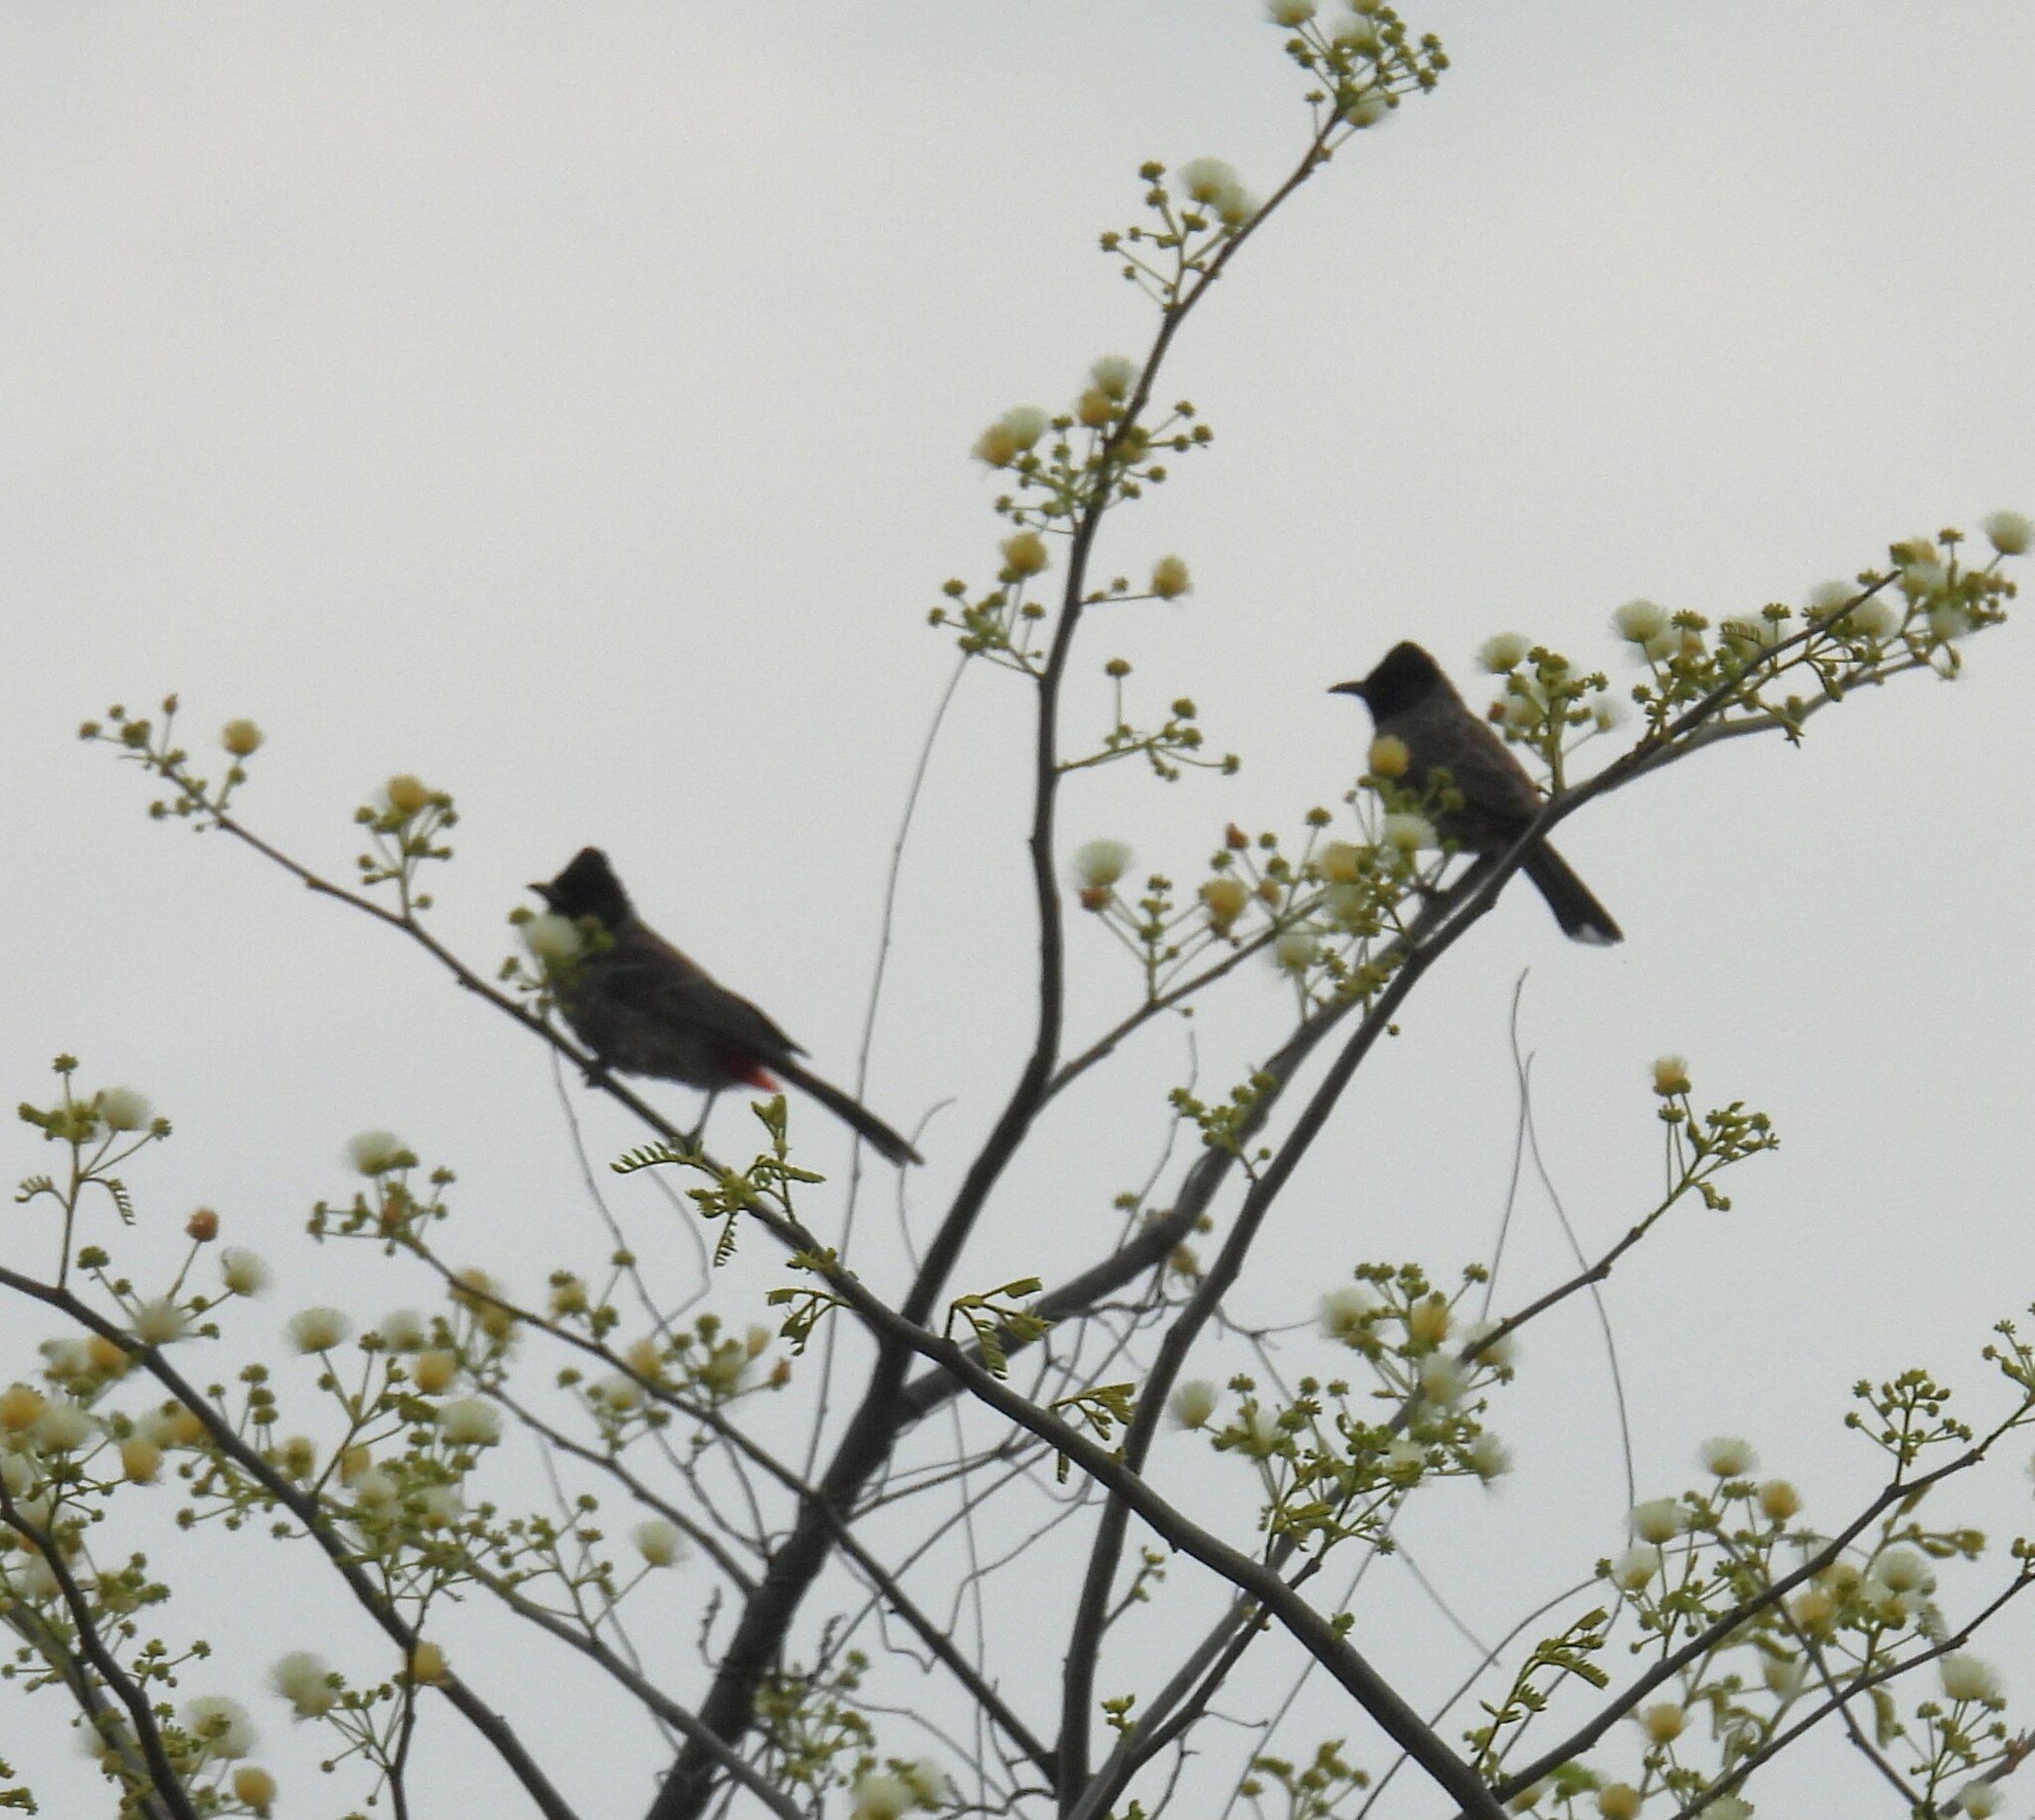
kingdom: Animalia
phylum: Chordata
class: Aves
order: Passeriformes
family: Pycnonotidae
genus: Pycnonotus
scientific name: Pycnonotus cafer
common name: Red-vented bulbul
